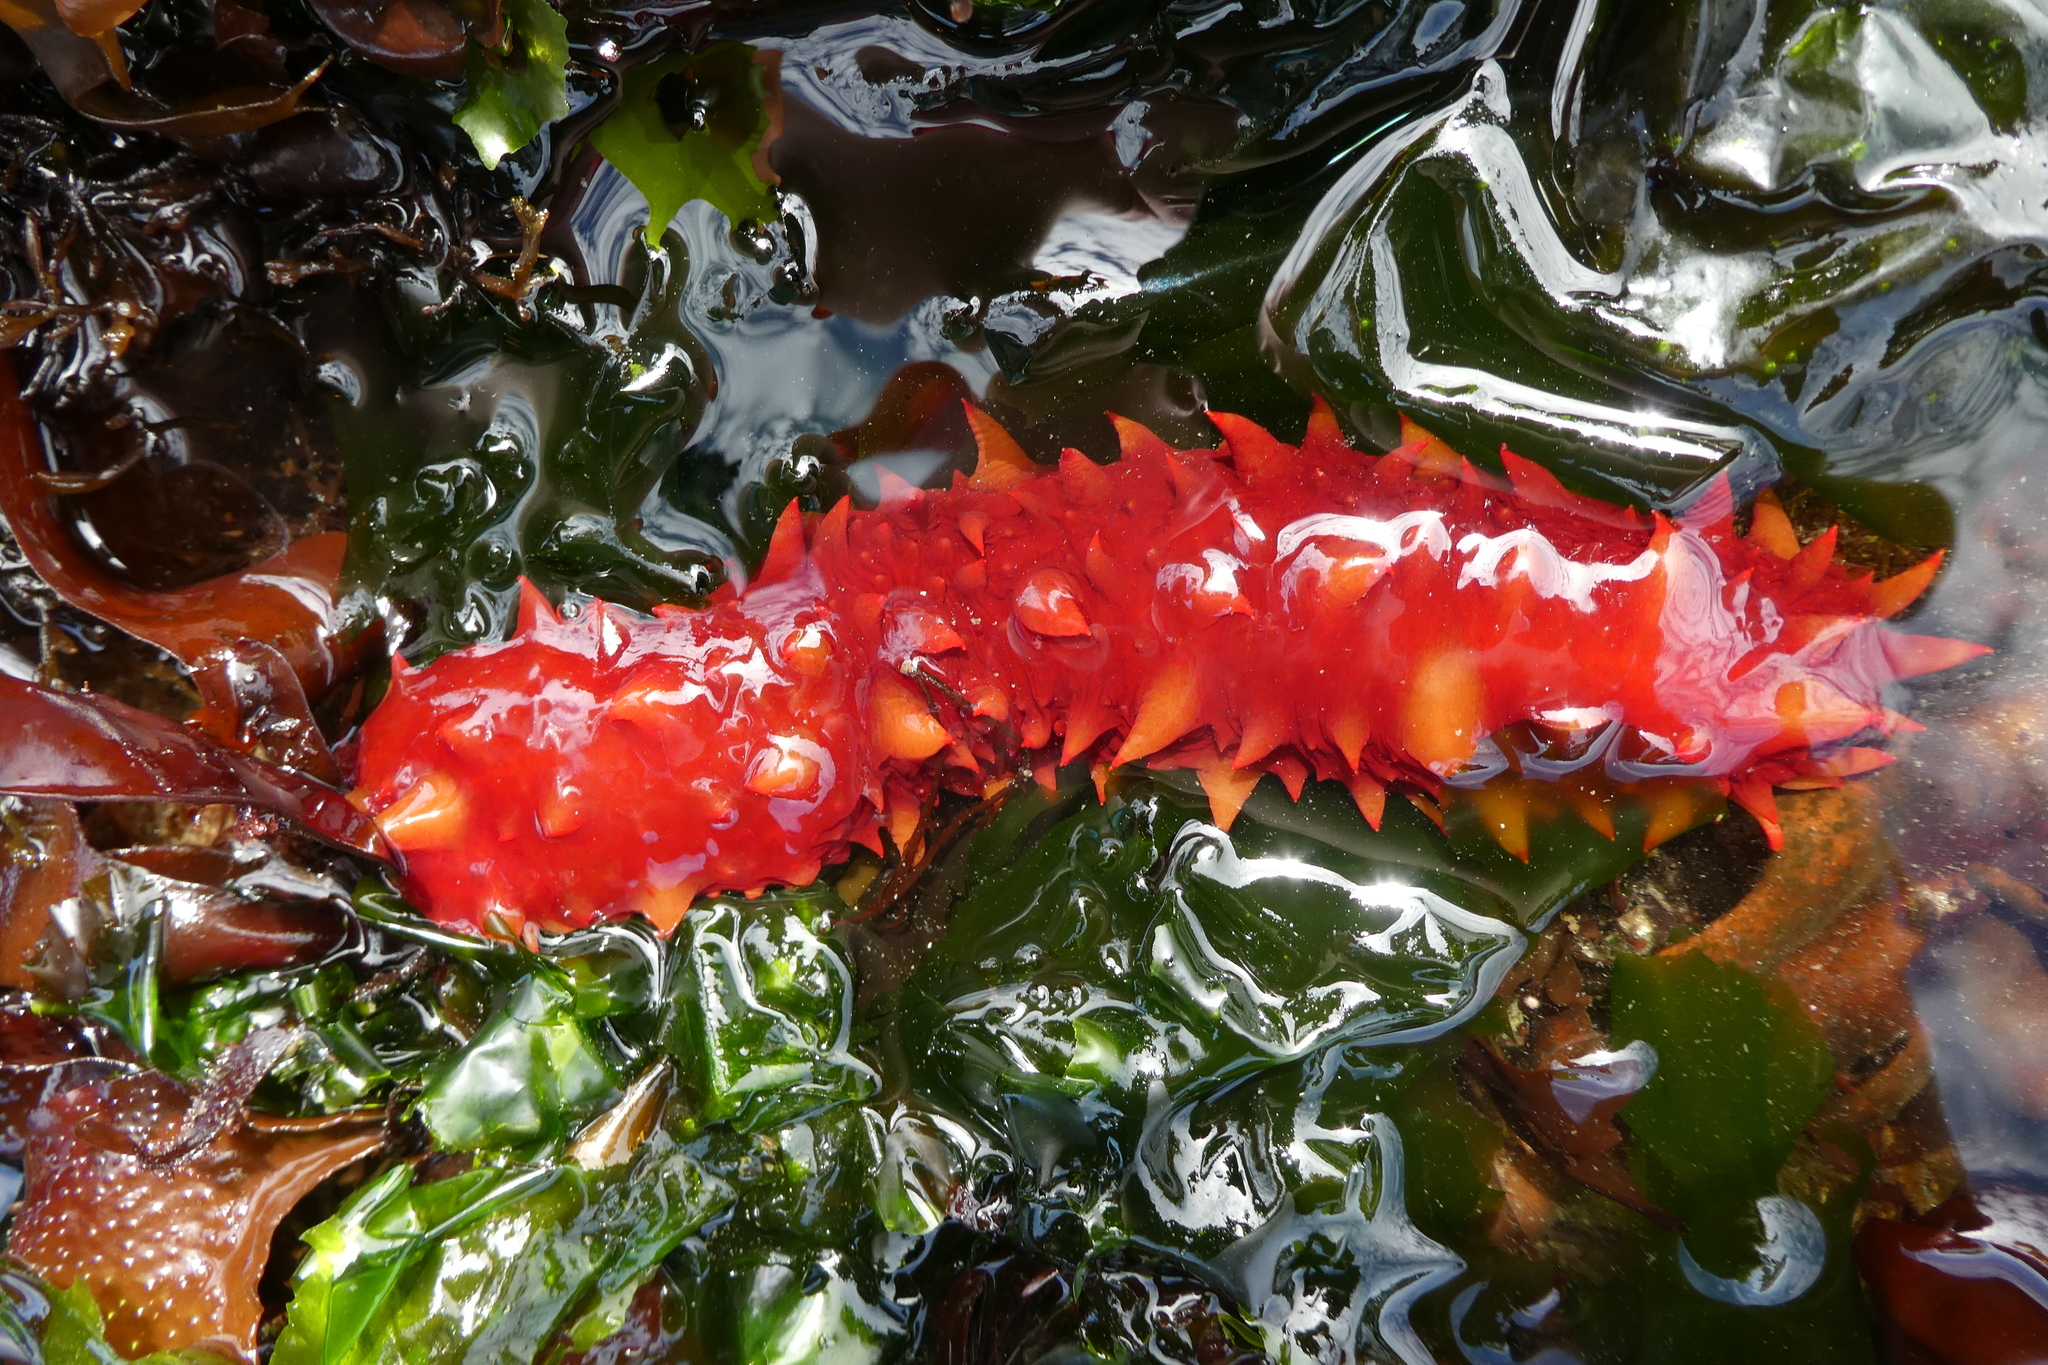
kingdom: Animalia
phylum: Echinodermata
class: Holothuroidea
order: Synallactida
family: Stichopodidae
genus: Apostichopus
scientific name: Apostichopus californicus
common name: California sea cucumber
